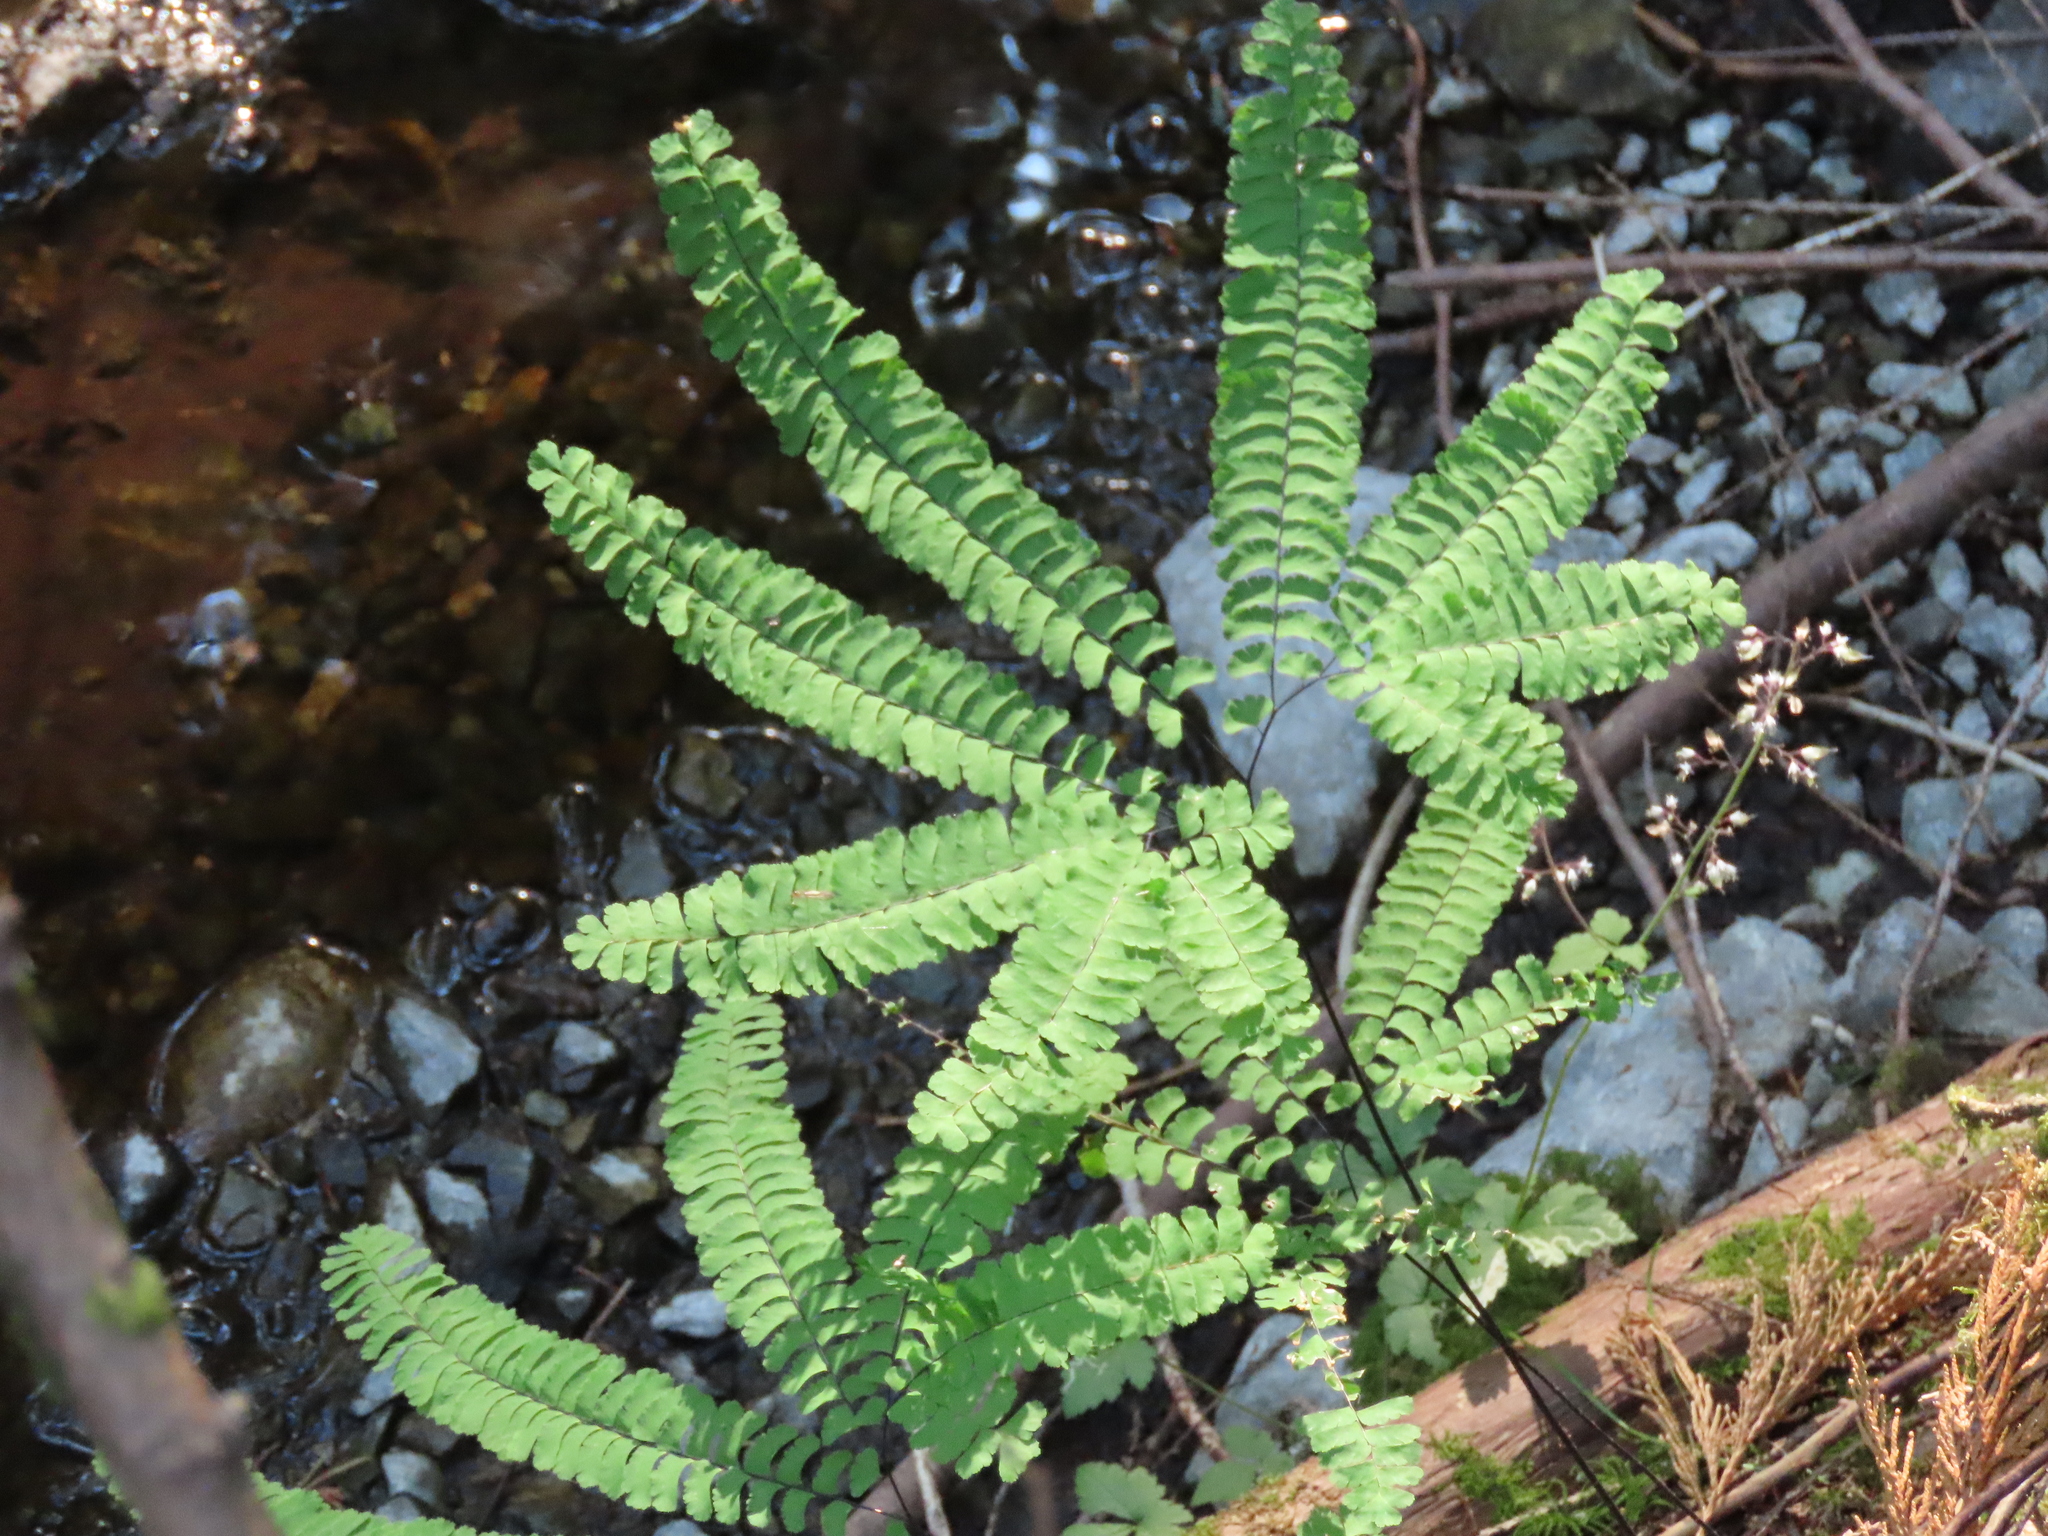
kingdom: Plantae
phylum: Tracheophyta
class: Polypodiopsida
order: Polypodiales
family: Pteridaceae
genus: Adiantum
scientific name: Adiantum aleuticum
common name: Aleutian maidenhair fern
